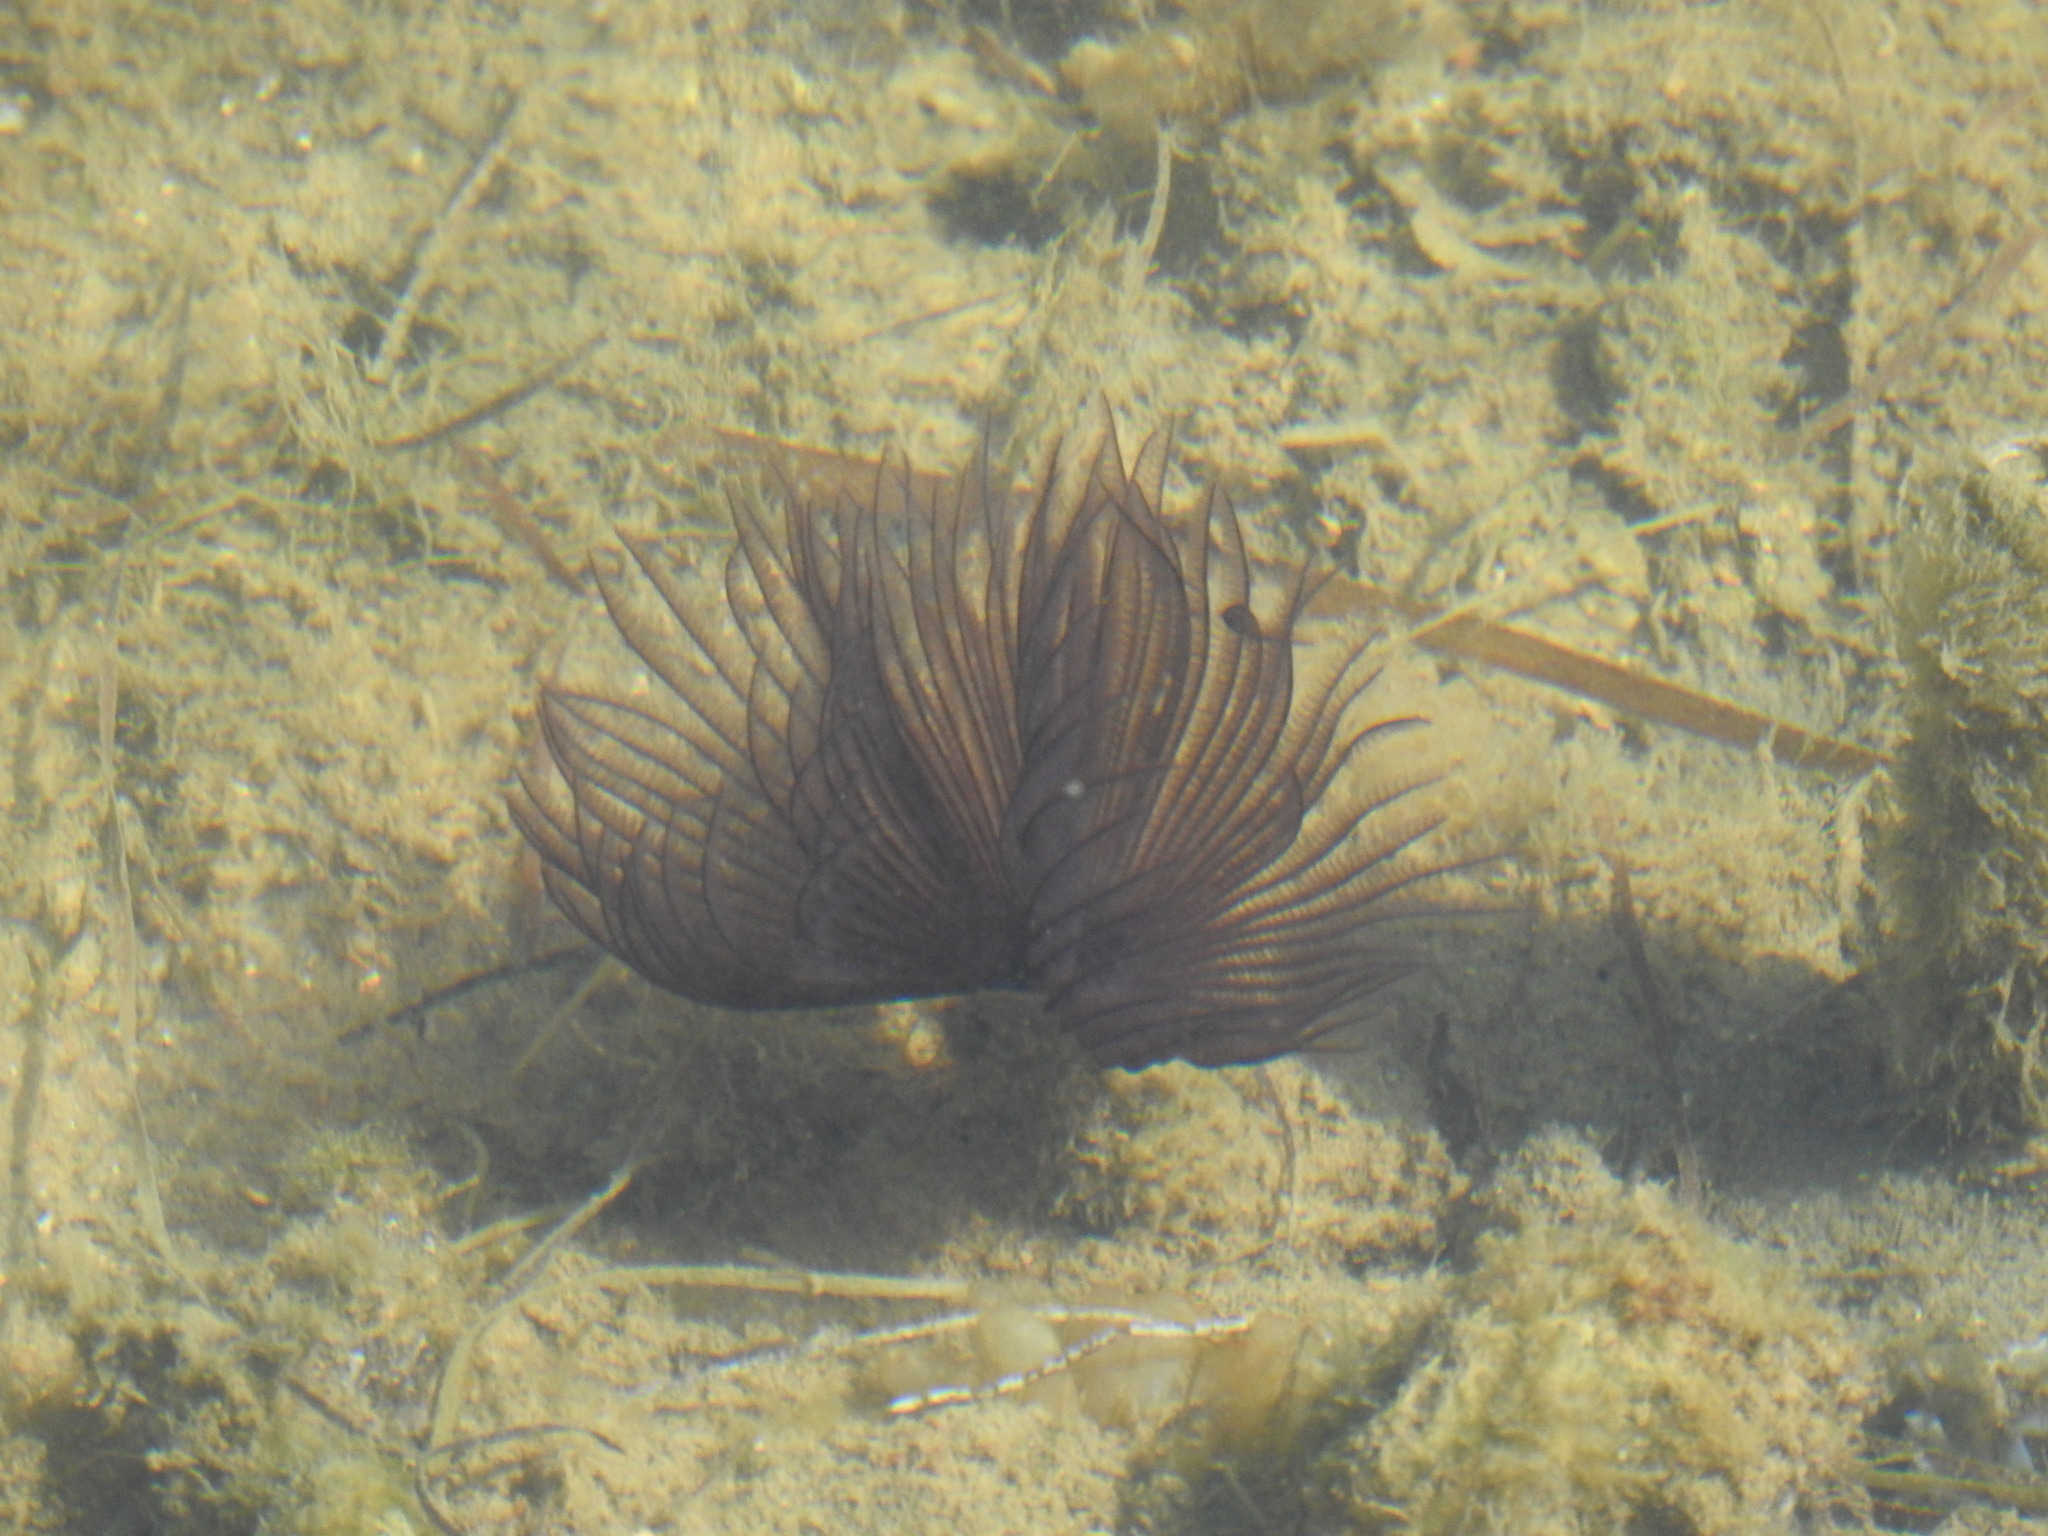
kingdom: Animalia
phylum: Annelida
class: Polychaeta
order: Sabellida
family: Sabellidae
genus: Branchiomma
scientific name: Branchiomma luctuosum
